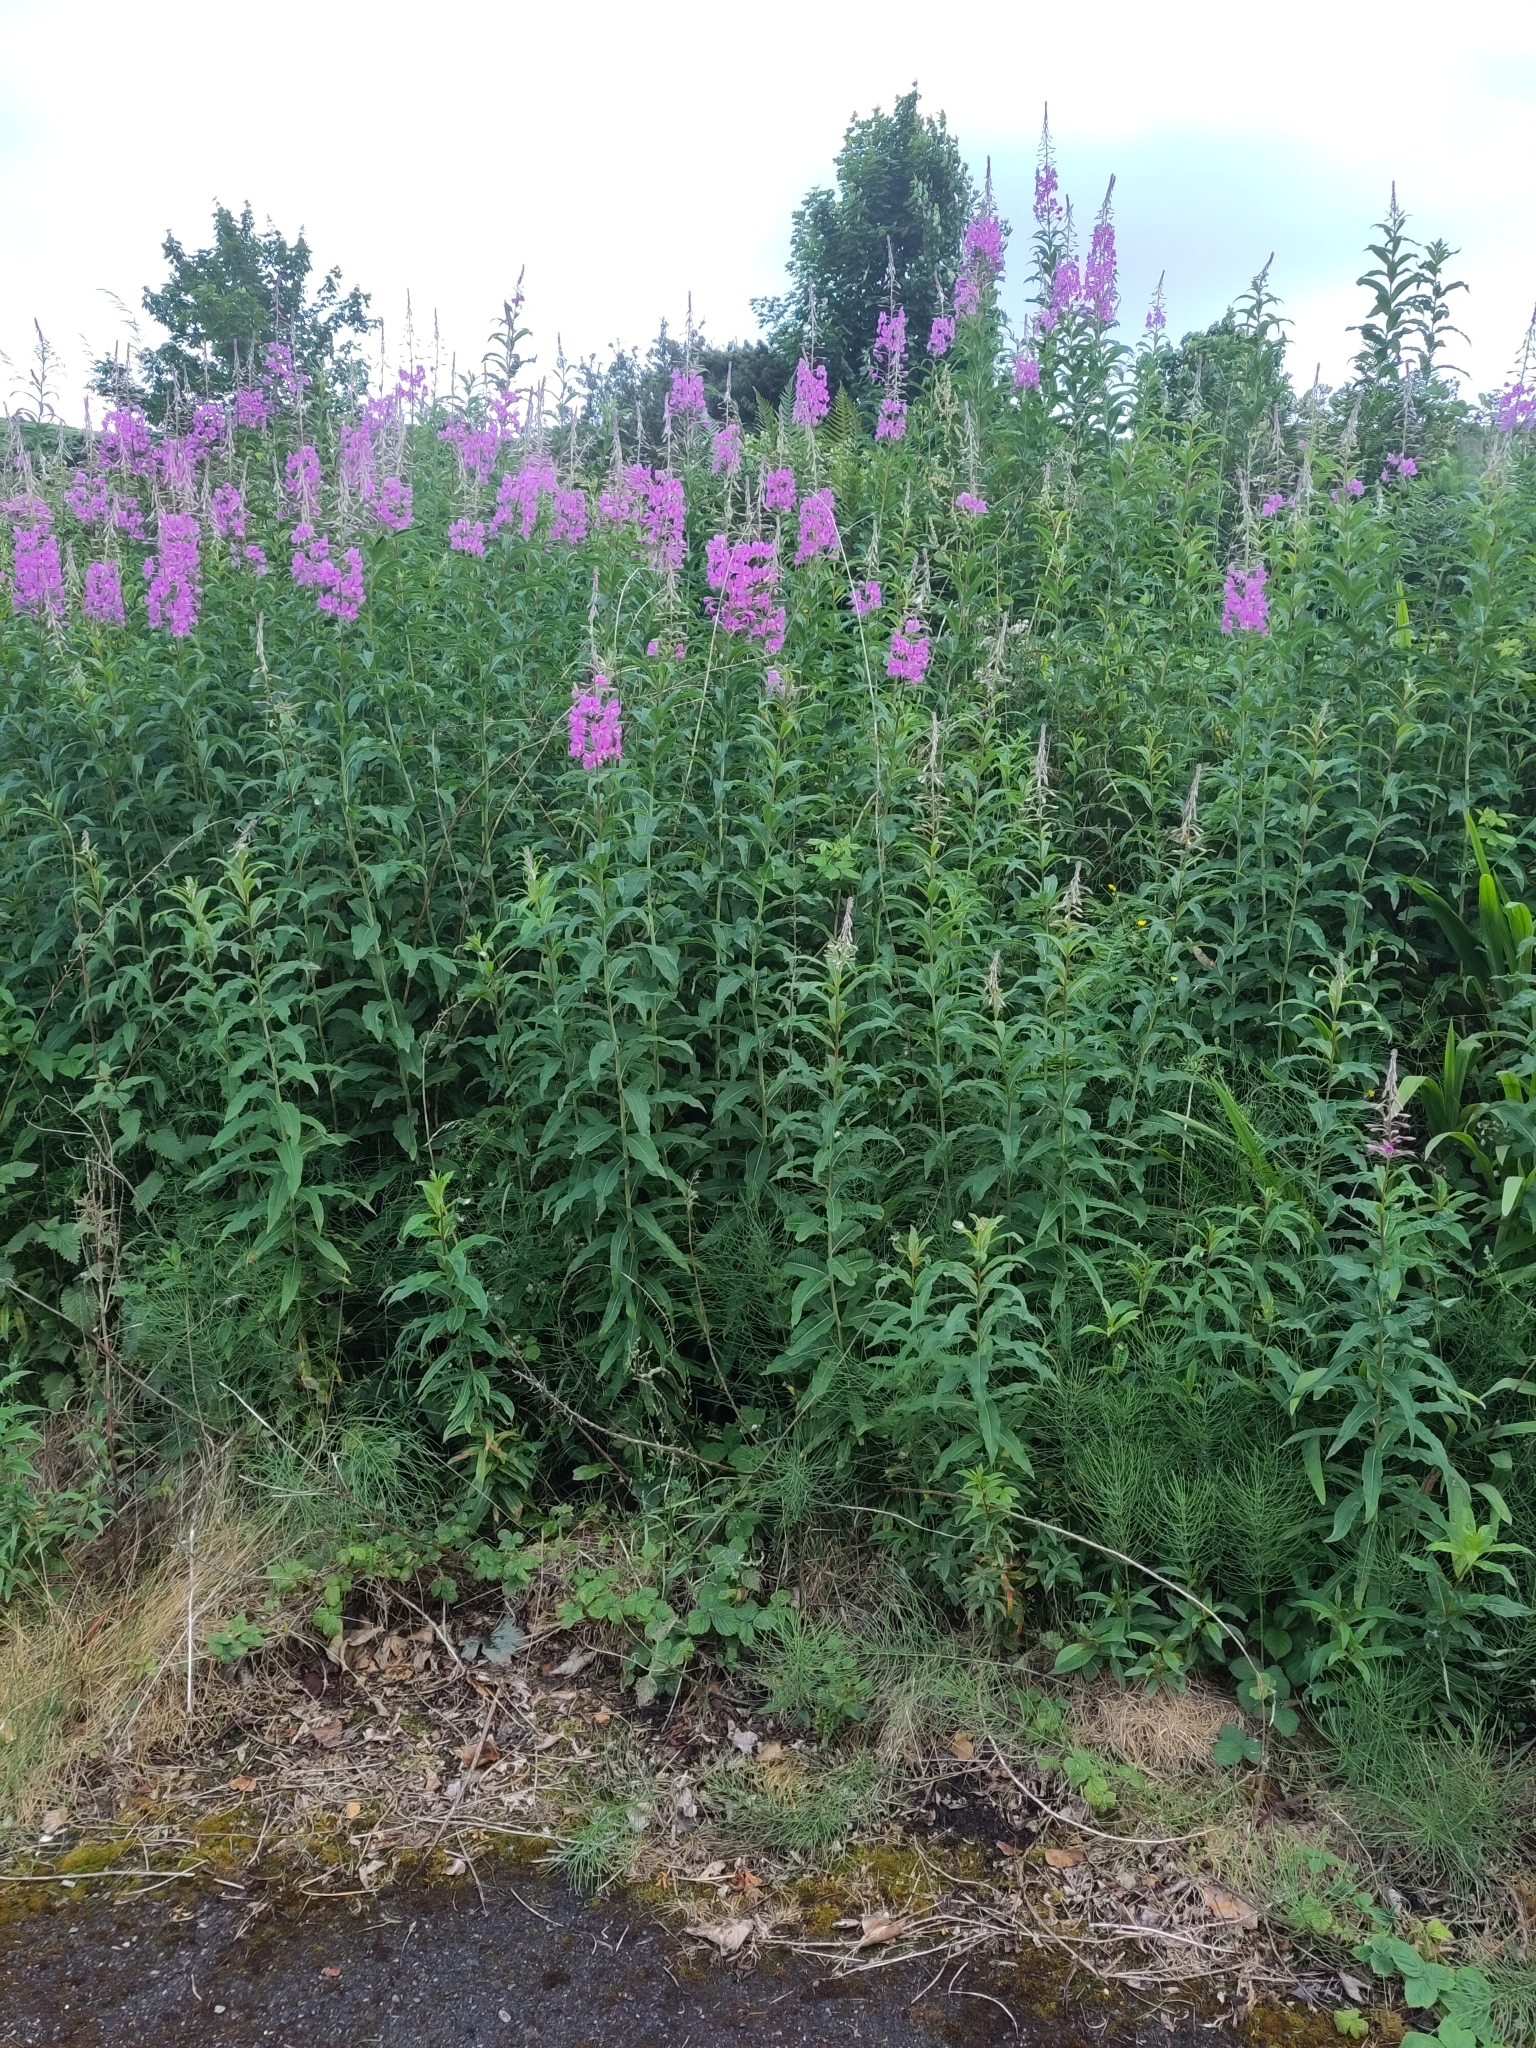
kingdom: Plantae
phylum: Tracheophyta
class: Magnoliopsida
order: Myrtales
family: Onagraceae
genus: Chamaenerion
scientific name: Chamaenerion angustifolium
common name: Fireweed
